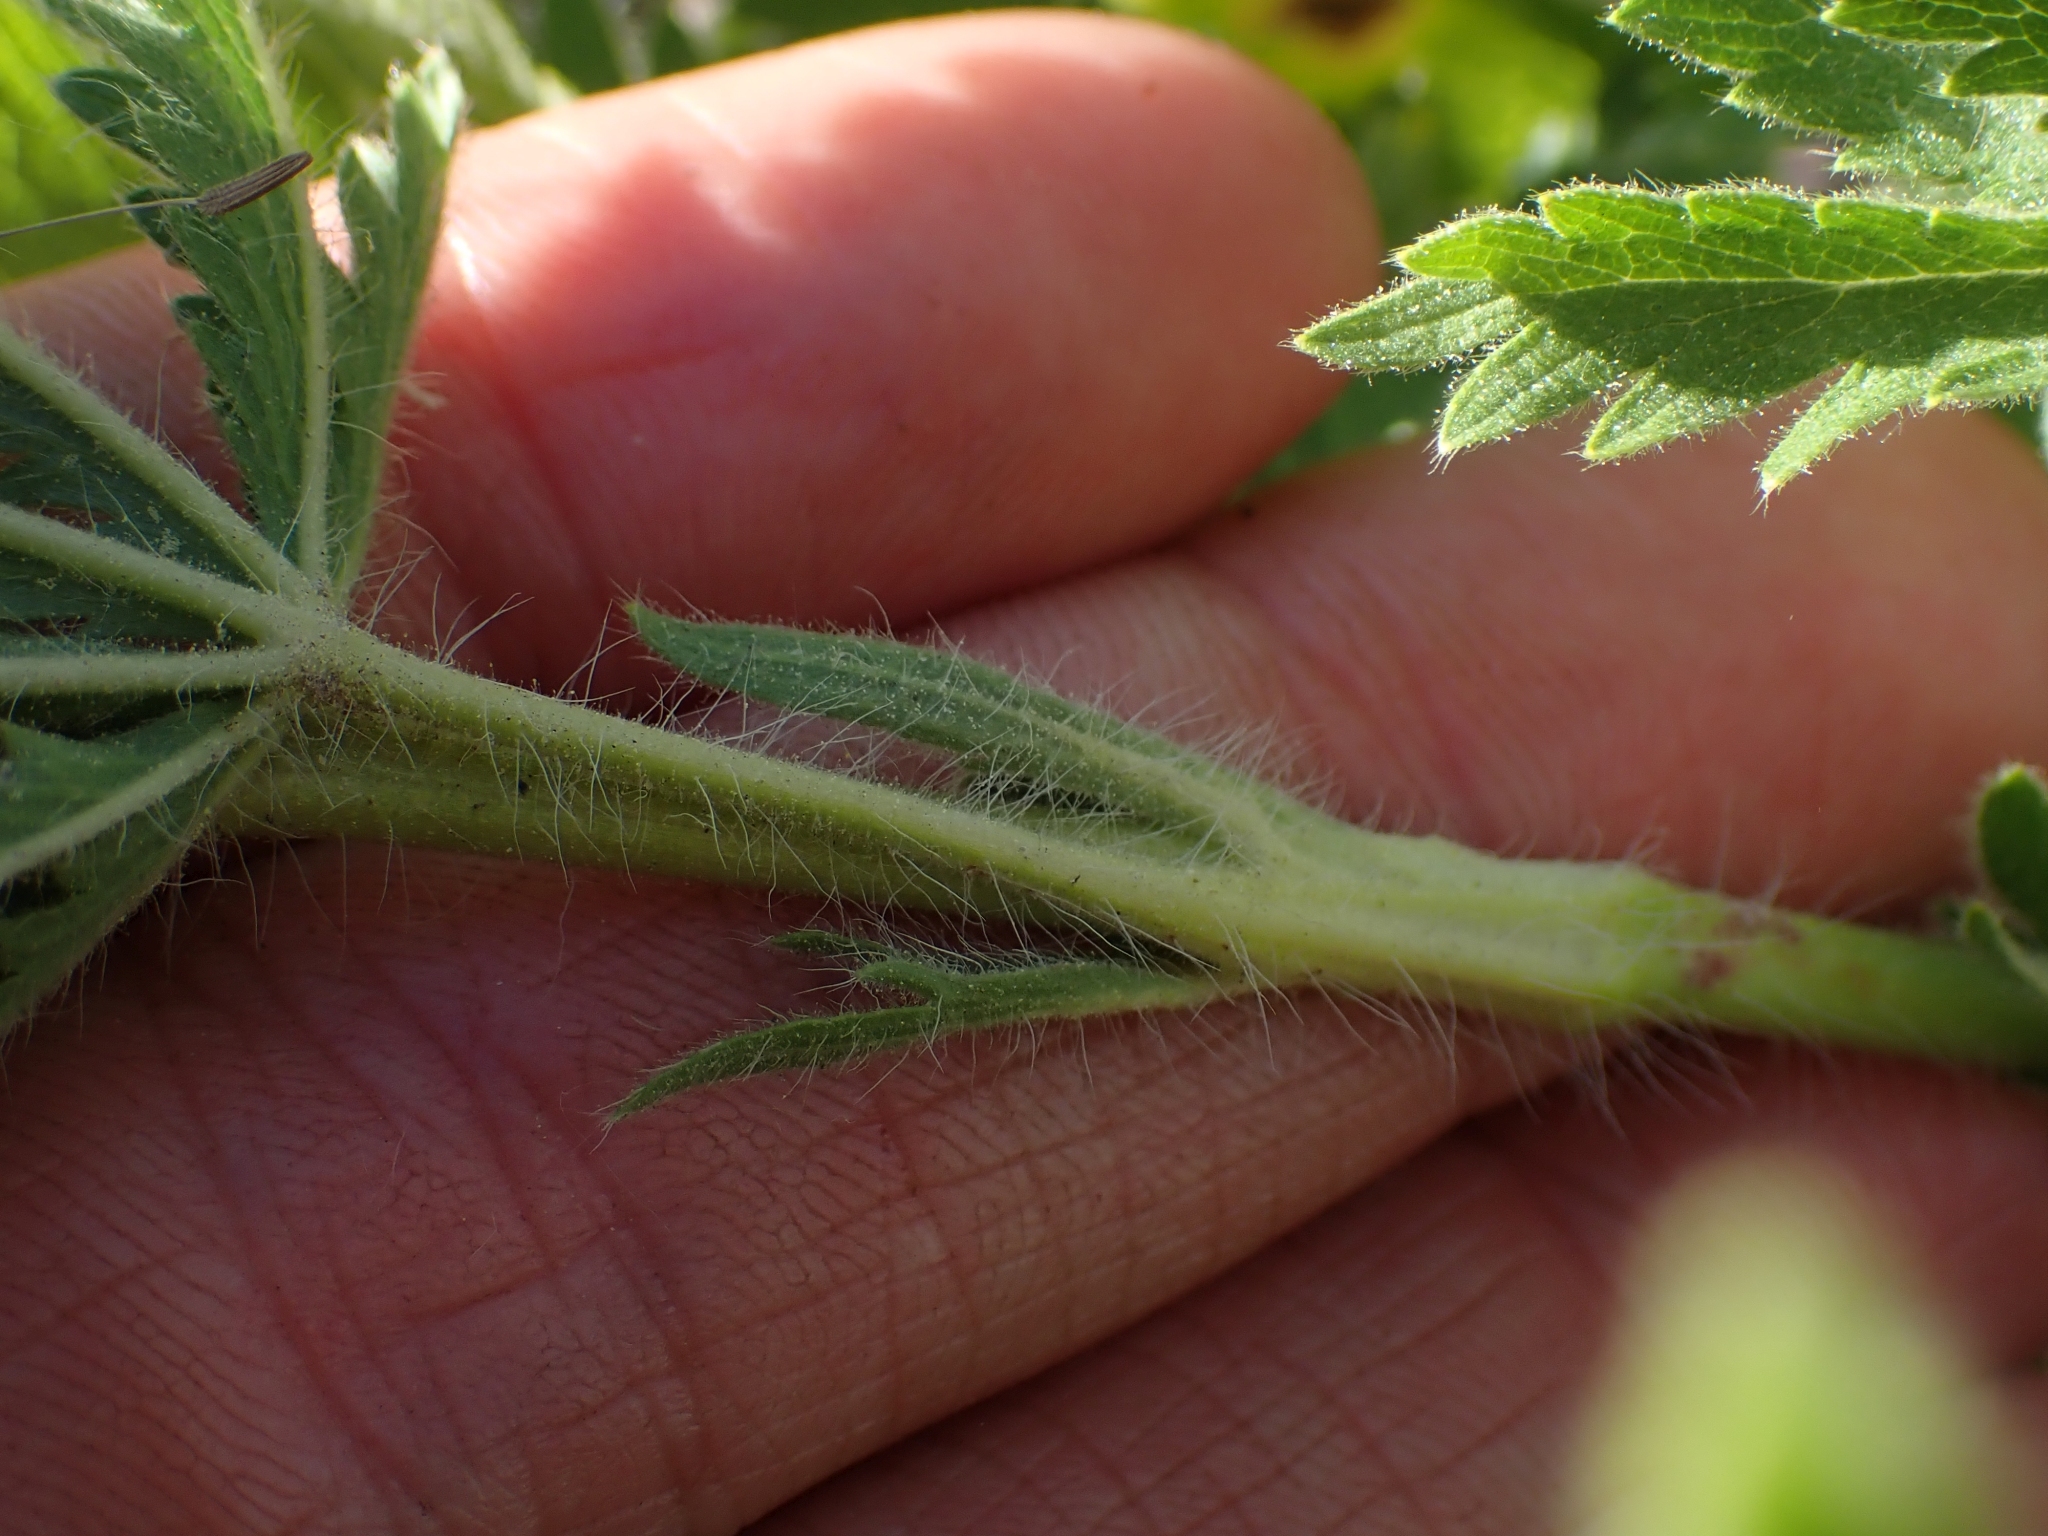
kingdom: Plantae
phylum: Tracheophyta
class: Magnoliopsida
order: Rosales
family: Rosaceae
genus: Potentilla
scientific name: Potentilla recta
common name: Sulphur cinquefoil
